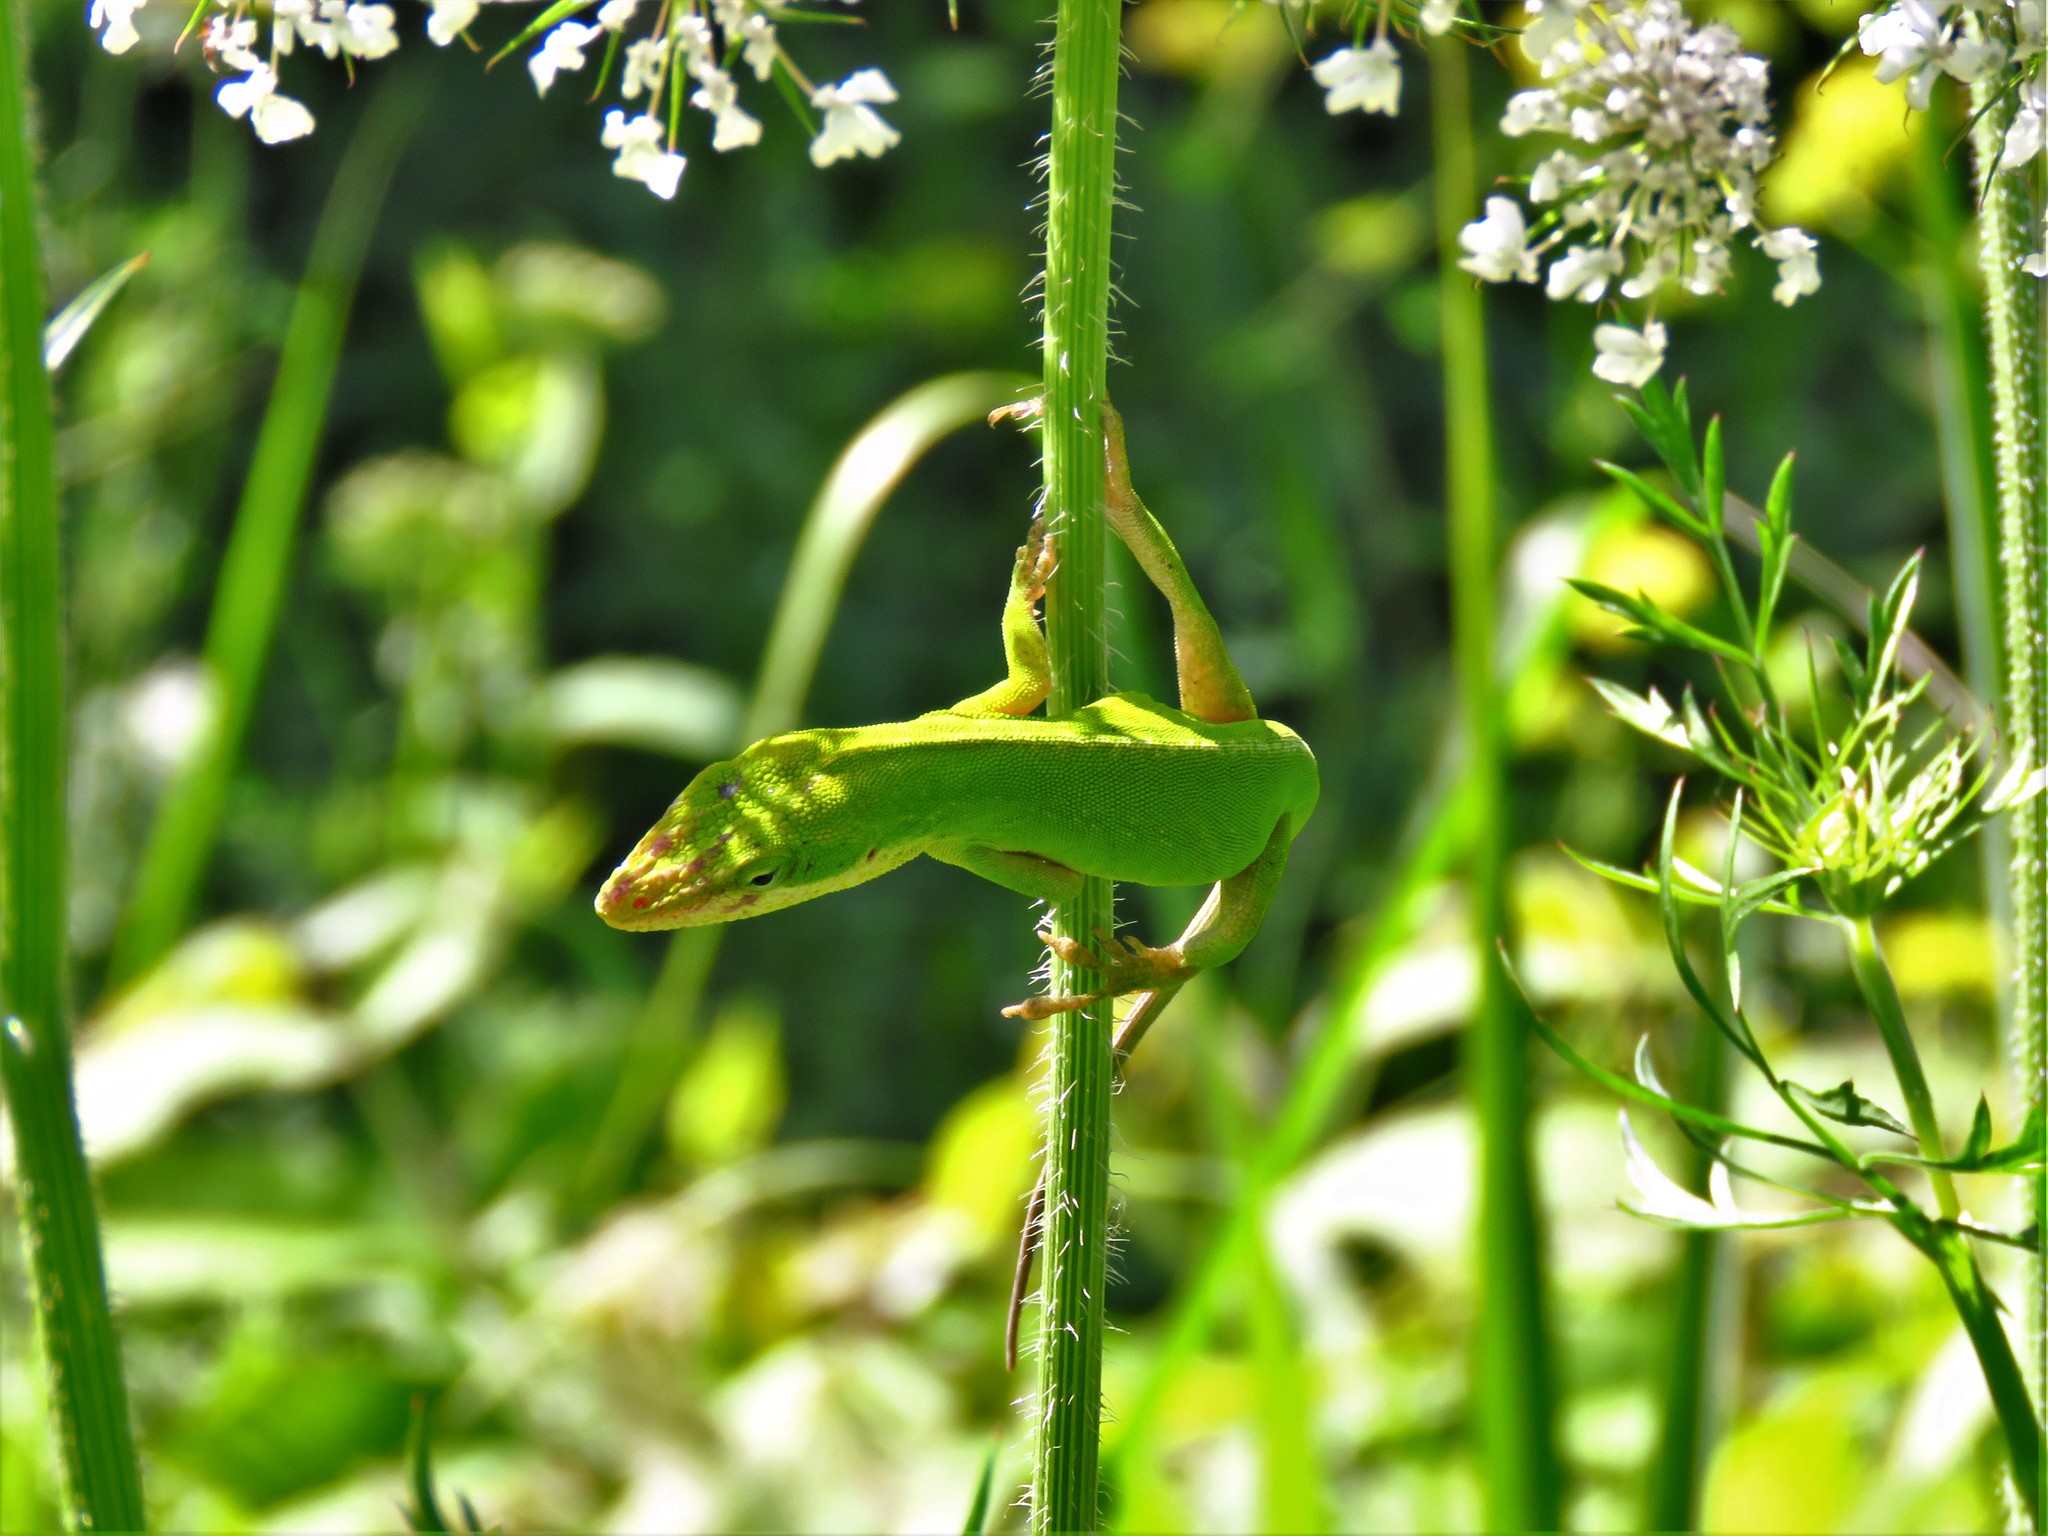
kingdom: Animalia
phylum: Chordata
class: Squamata
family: Dactyloidae
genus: Anolis
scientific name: Anolis carolinensis
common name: Green anole
